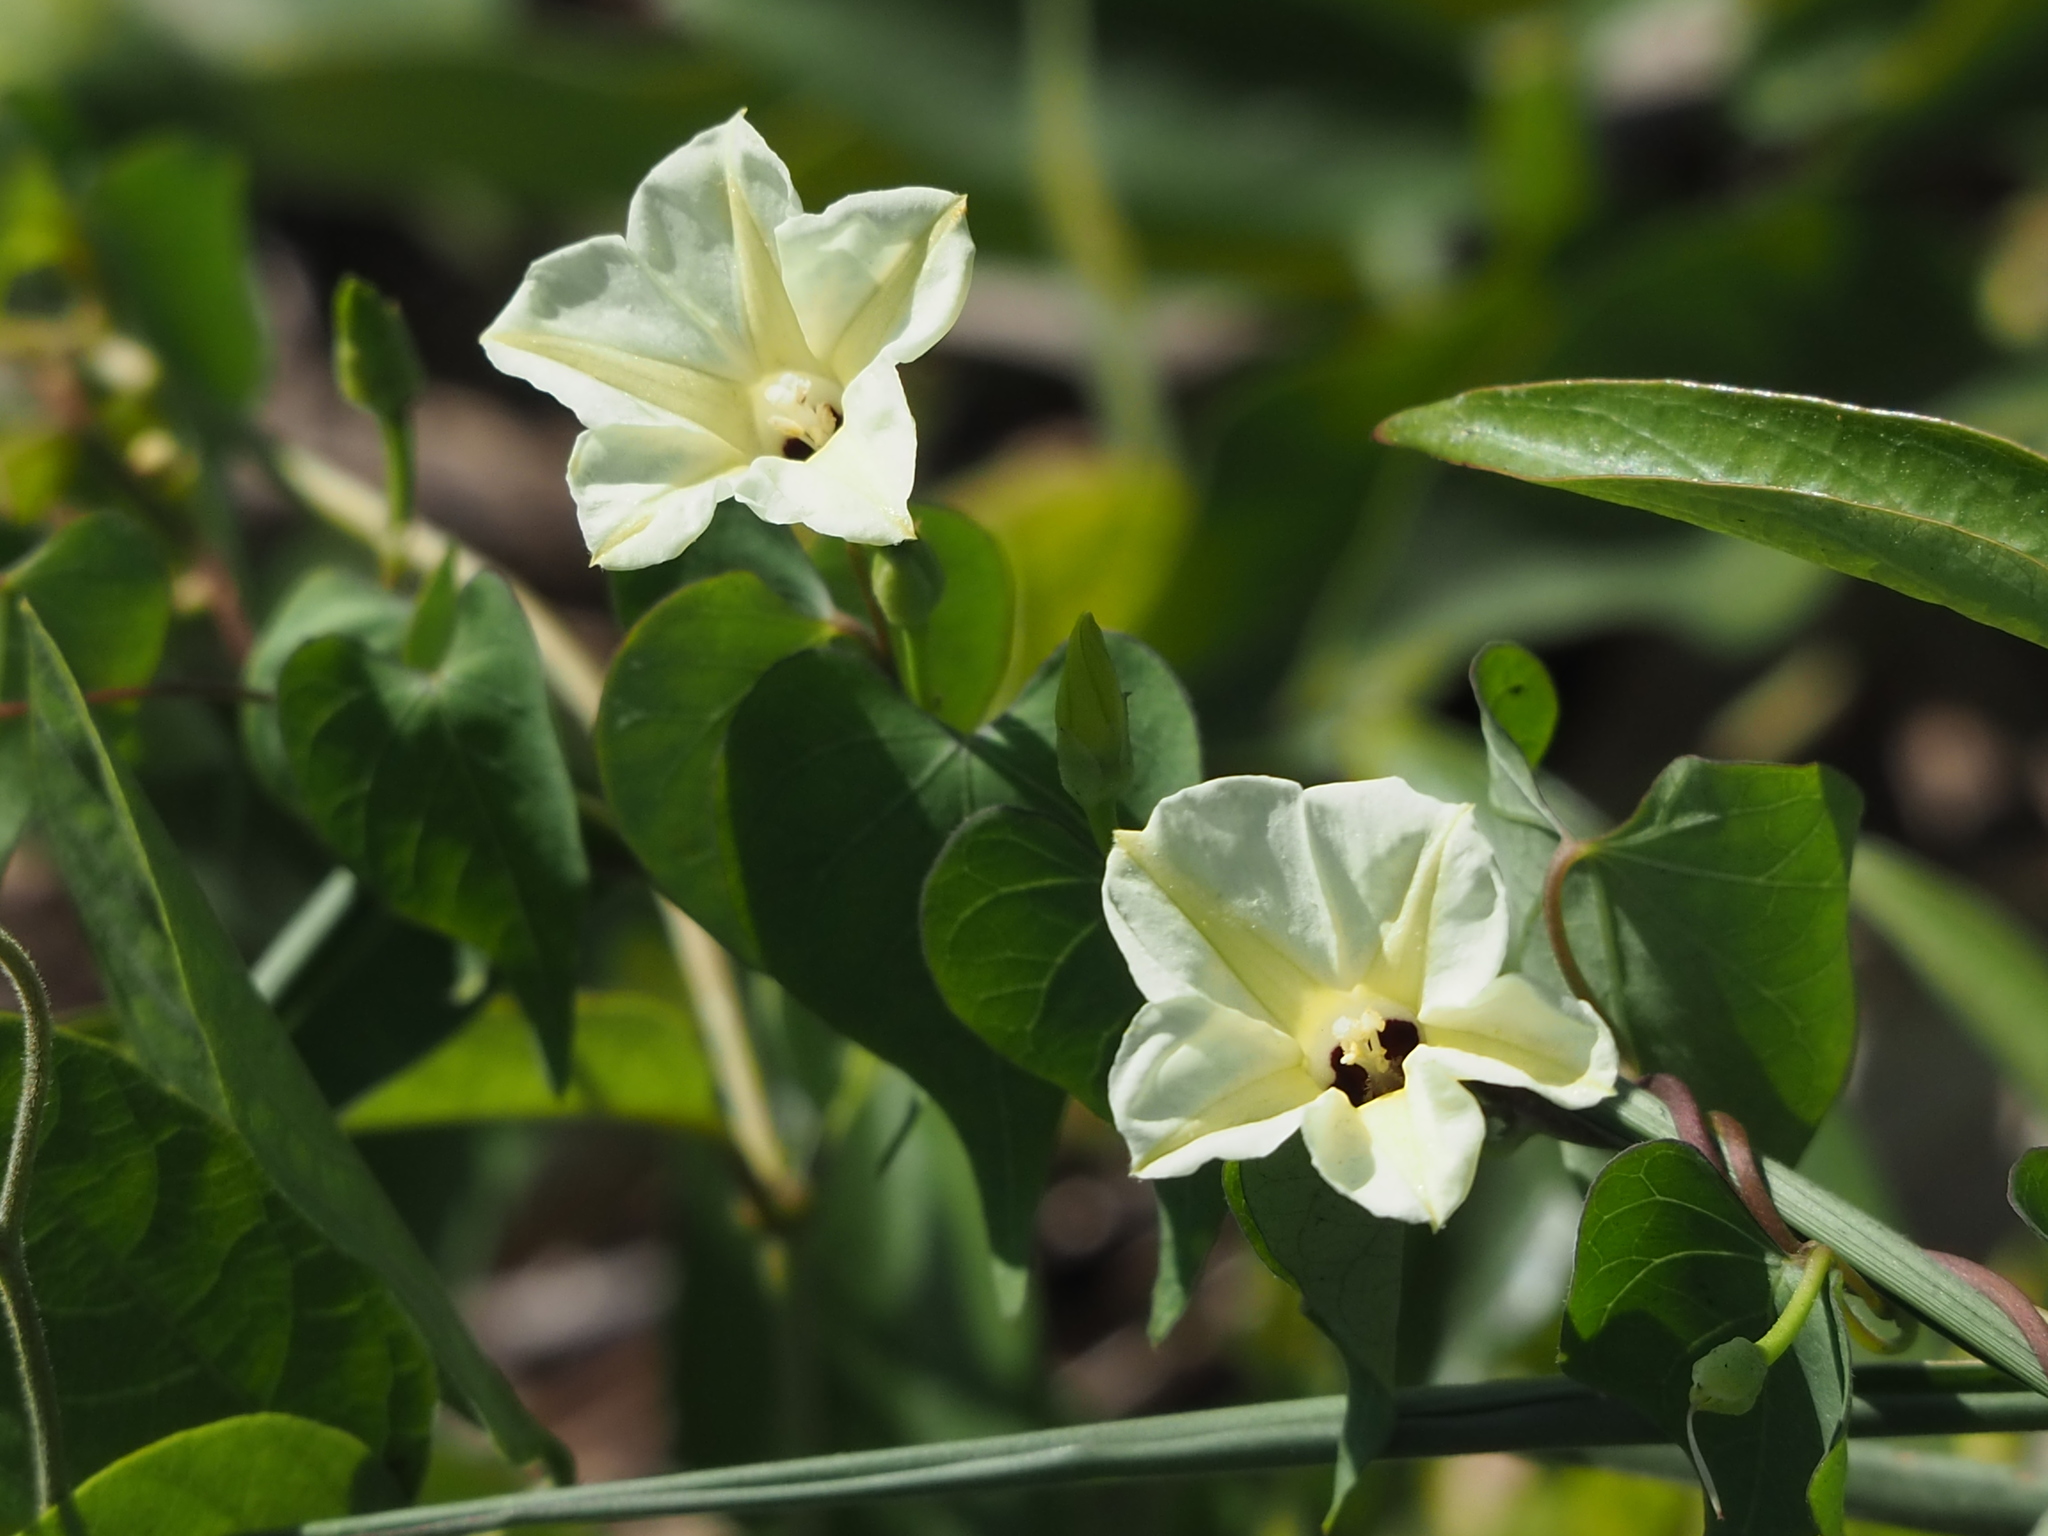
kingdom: Plantae
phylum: Tracheophyta
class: Magnoliopsida
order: Solanales
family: Convolvulaceae
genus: Ipomoea
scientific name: Ipomoea obscura
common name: Obscure morning-glory
